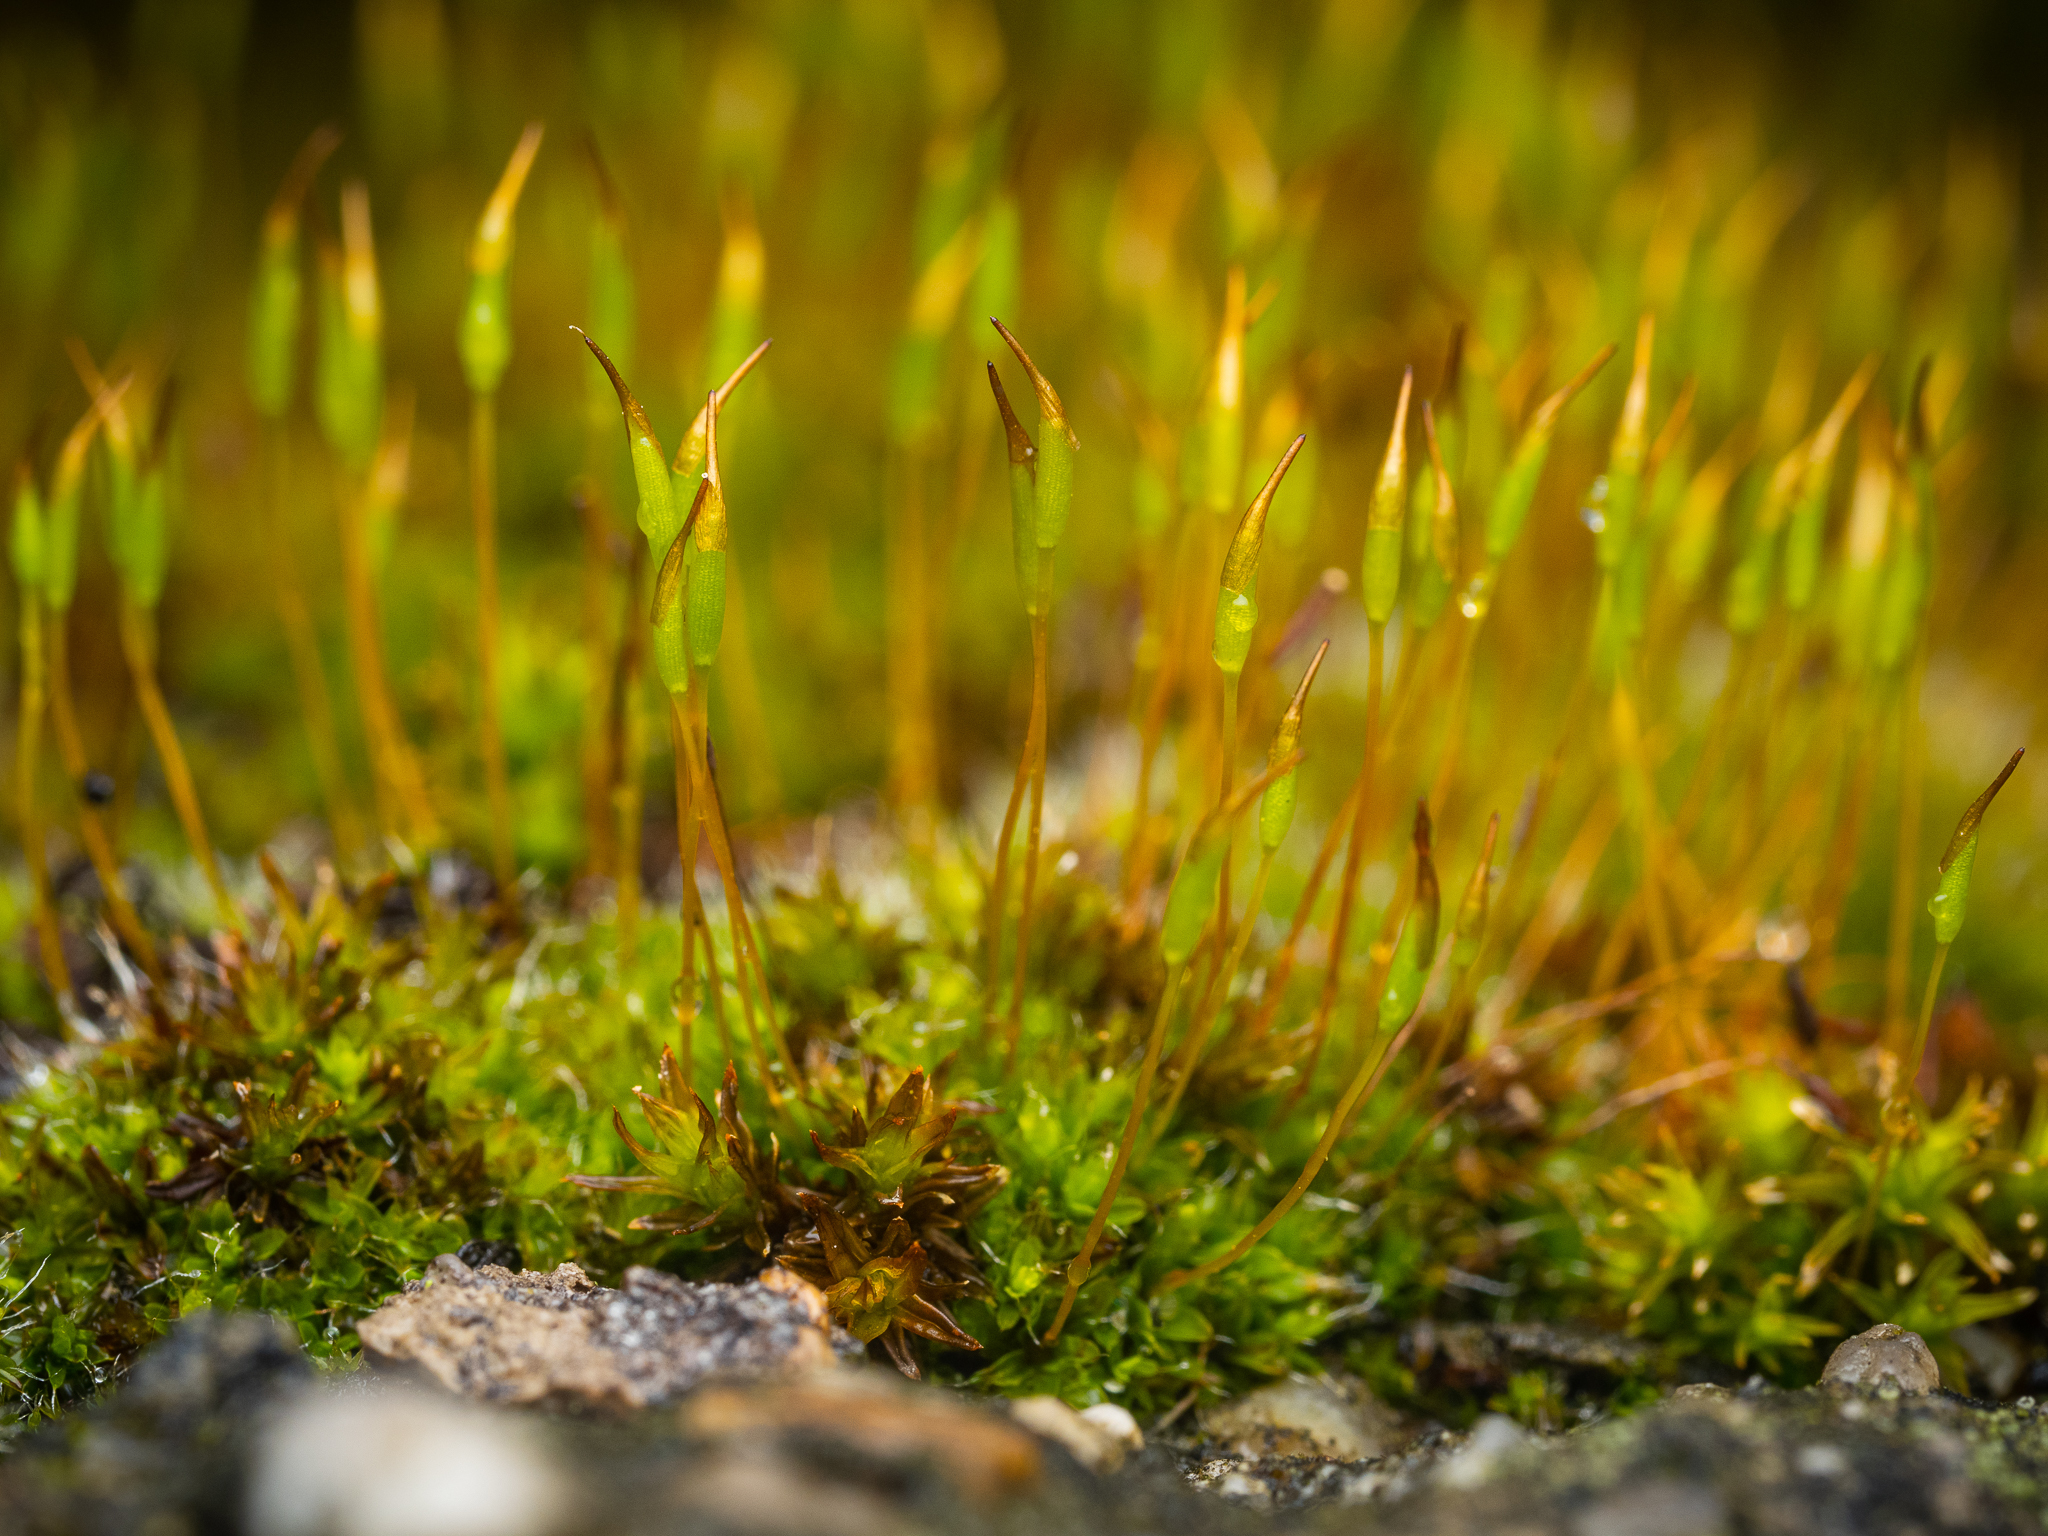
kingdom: Plantae
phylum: Bryophyta
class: Bryopsida
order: Pottiales
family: Pottiaceae
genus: Tortula
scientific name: Tortula muralis
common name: Wall screw-moss
